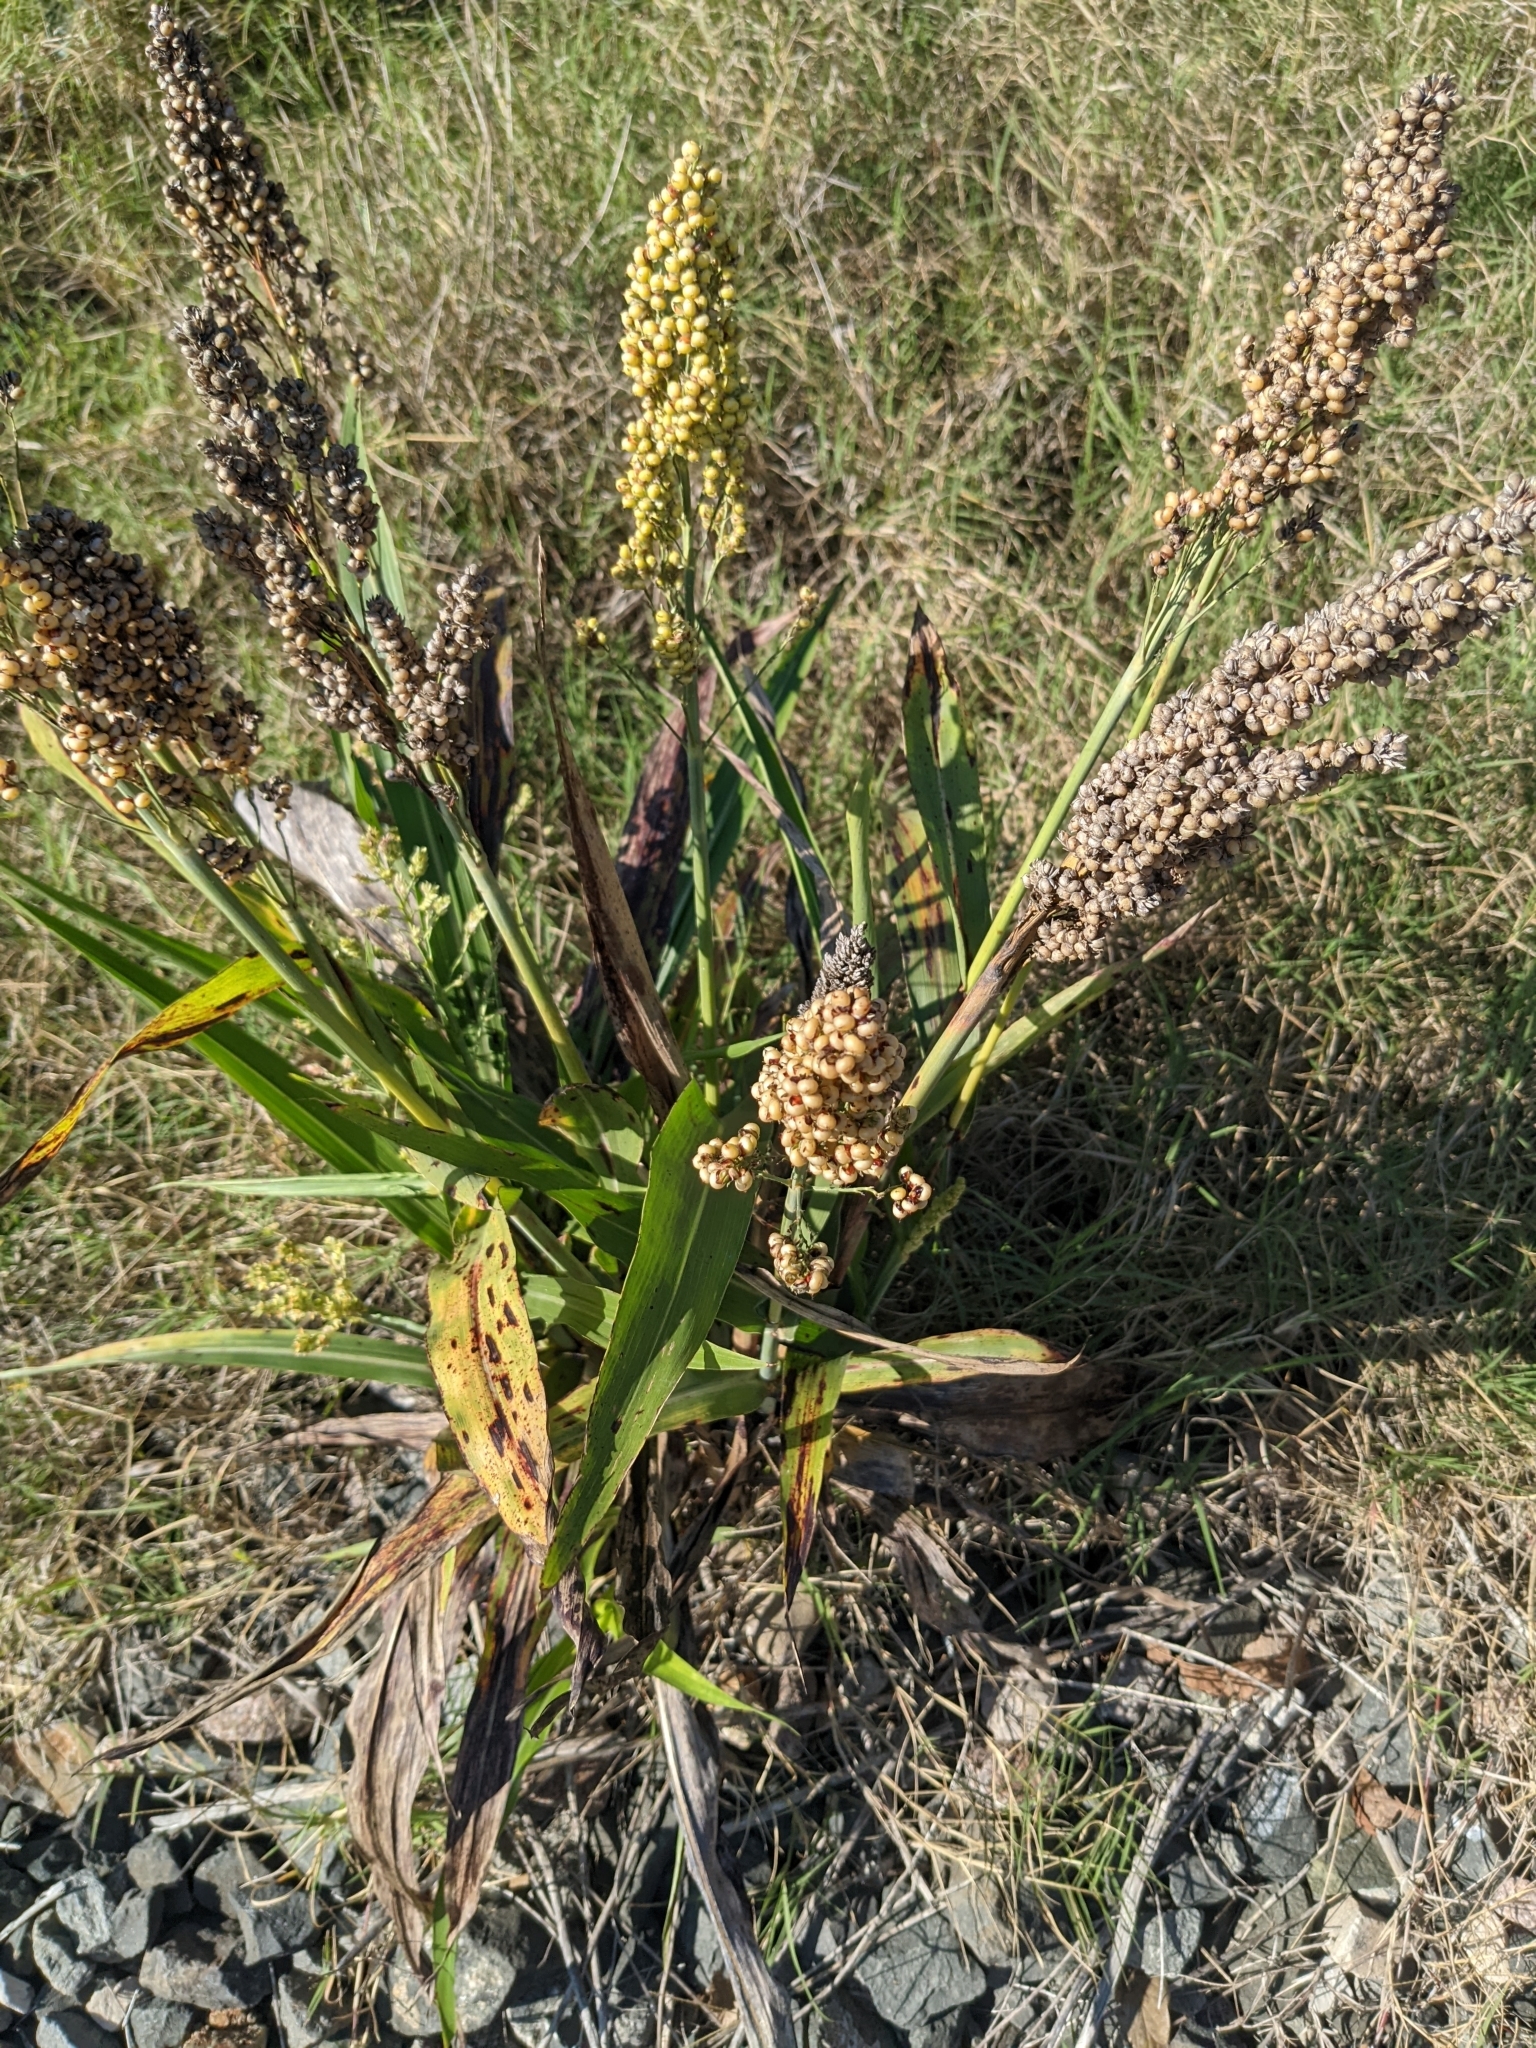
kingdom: Plantae
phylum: Tracheophyta
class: Liliopsida
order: Poales
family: Poaceae
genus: Sorghum
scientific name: Sorghum bicolor
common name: Sorghum
